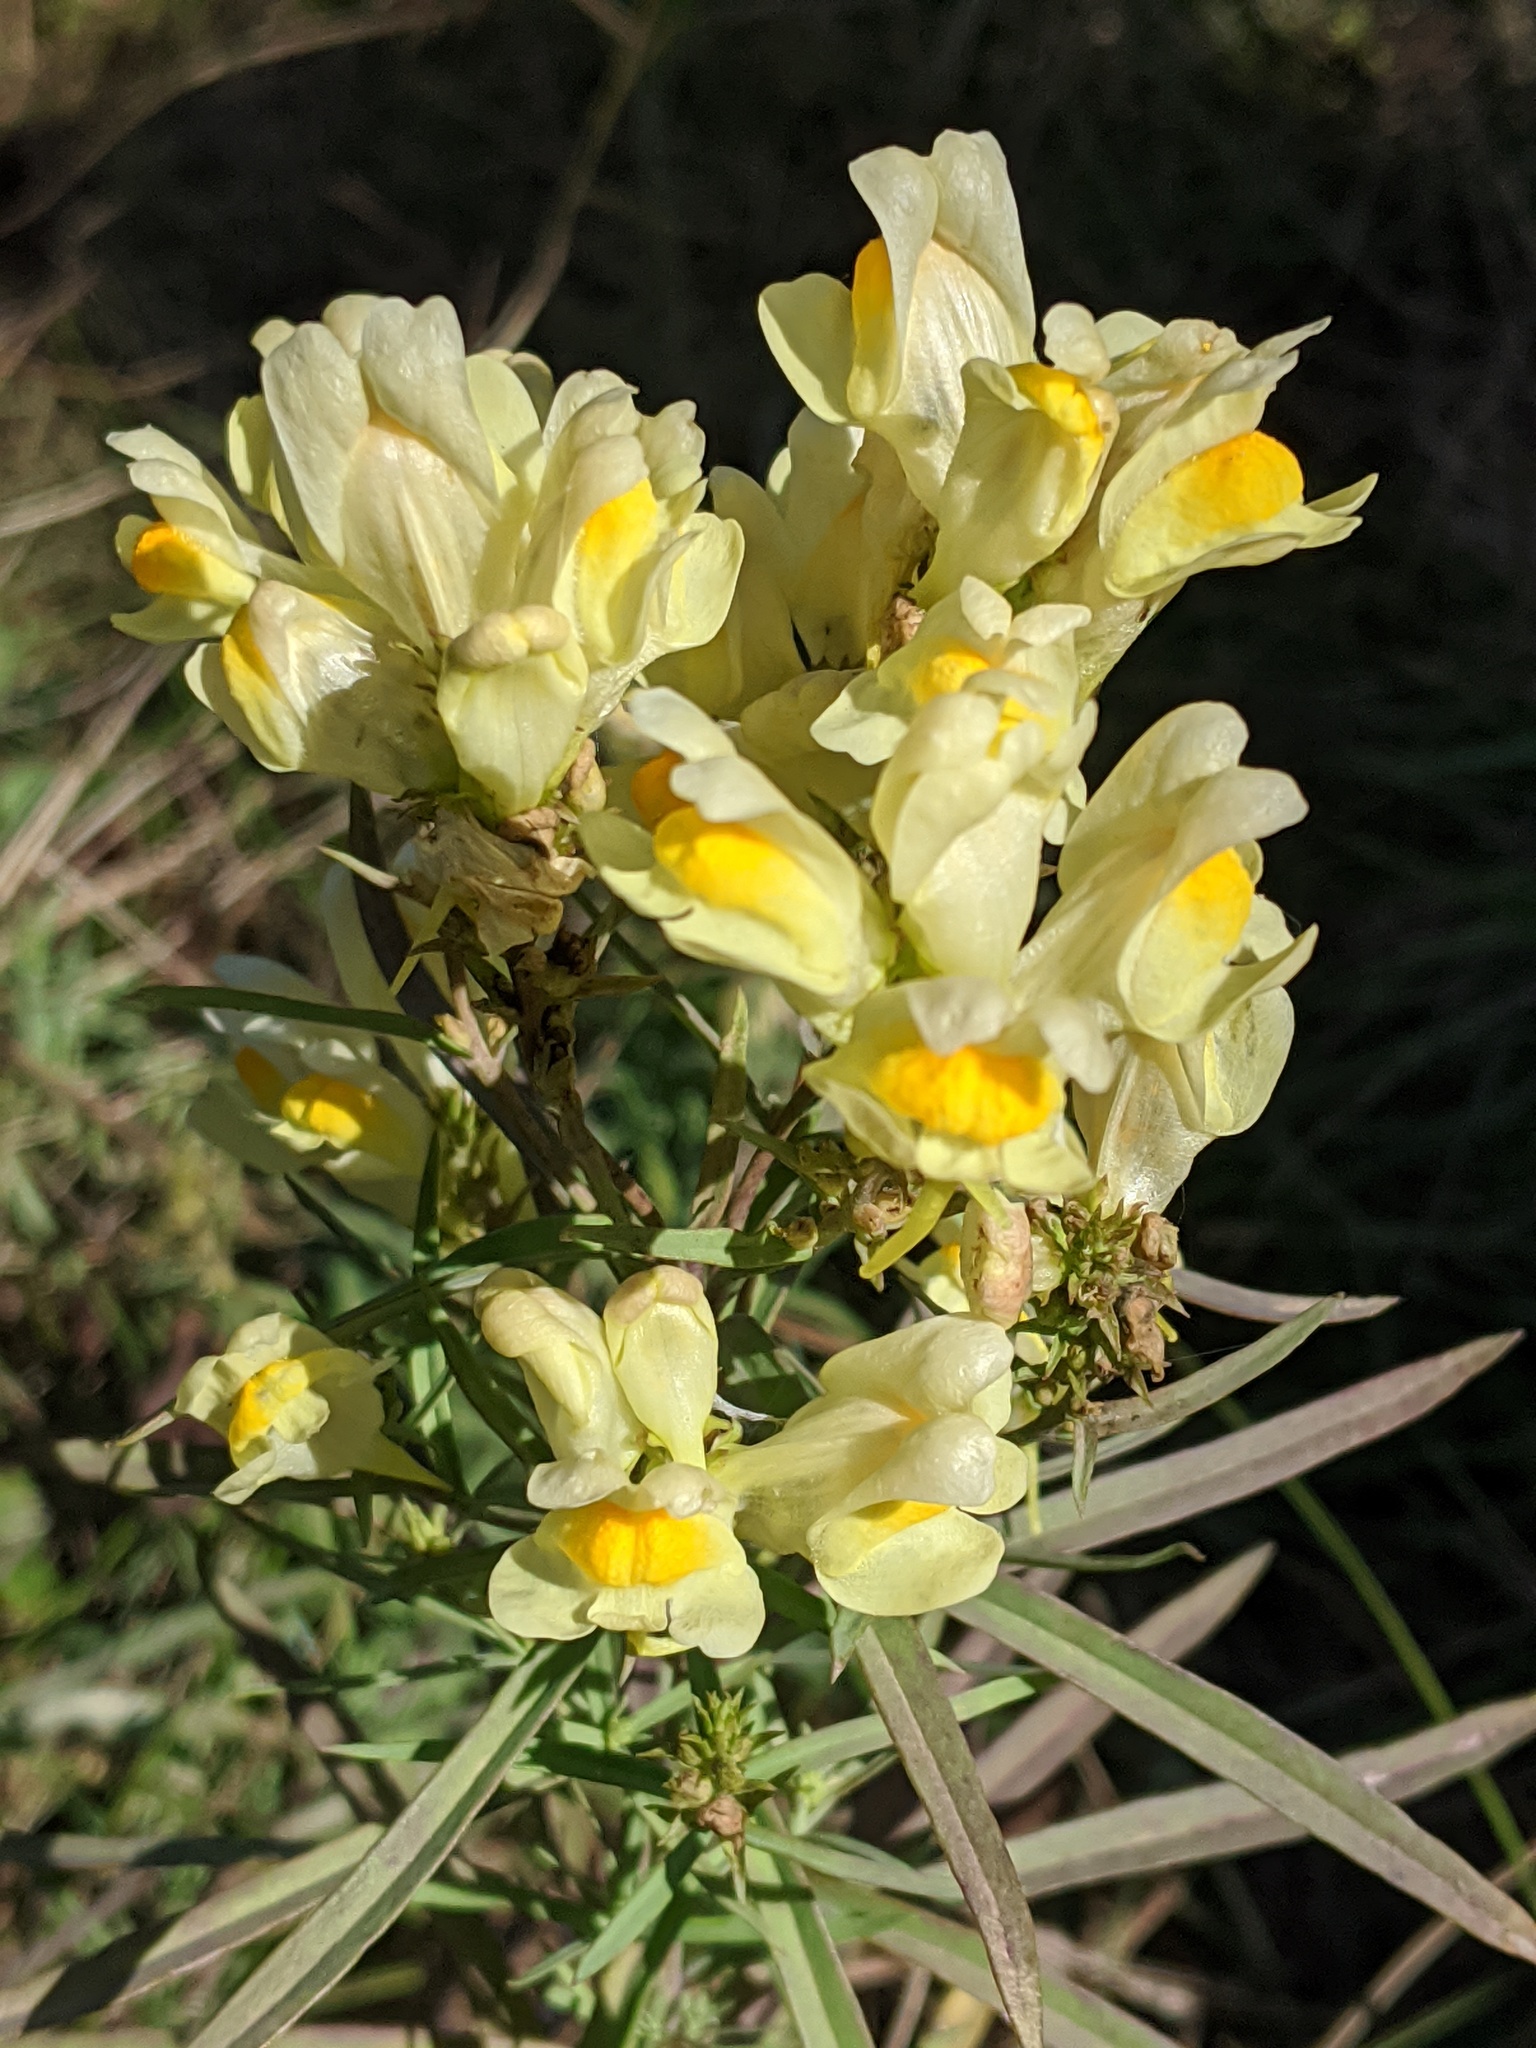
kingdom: Plantae
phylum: Tracheophyta
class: Magnoliopsida
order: Lamiales
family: Plantaginaceae
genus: Linaria
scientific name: Linaria vulgaris
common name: Butter and eggs
